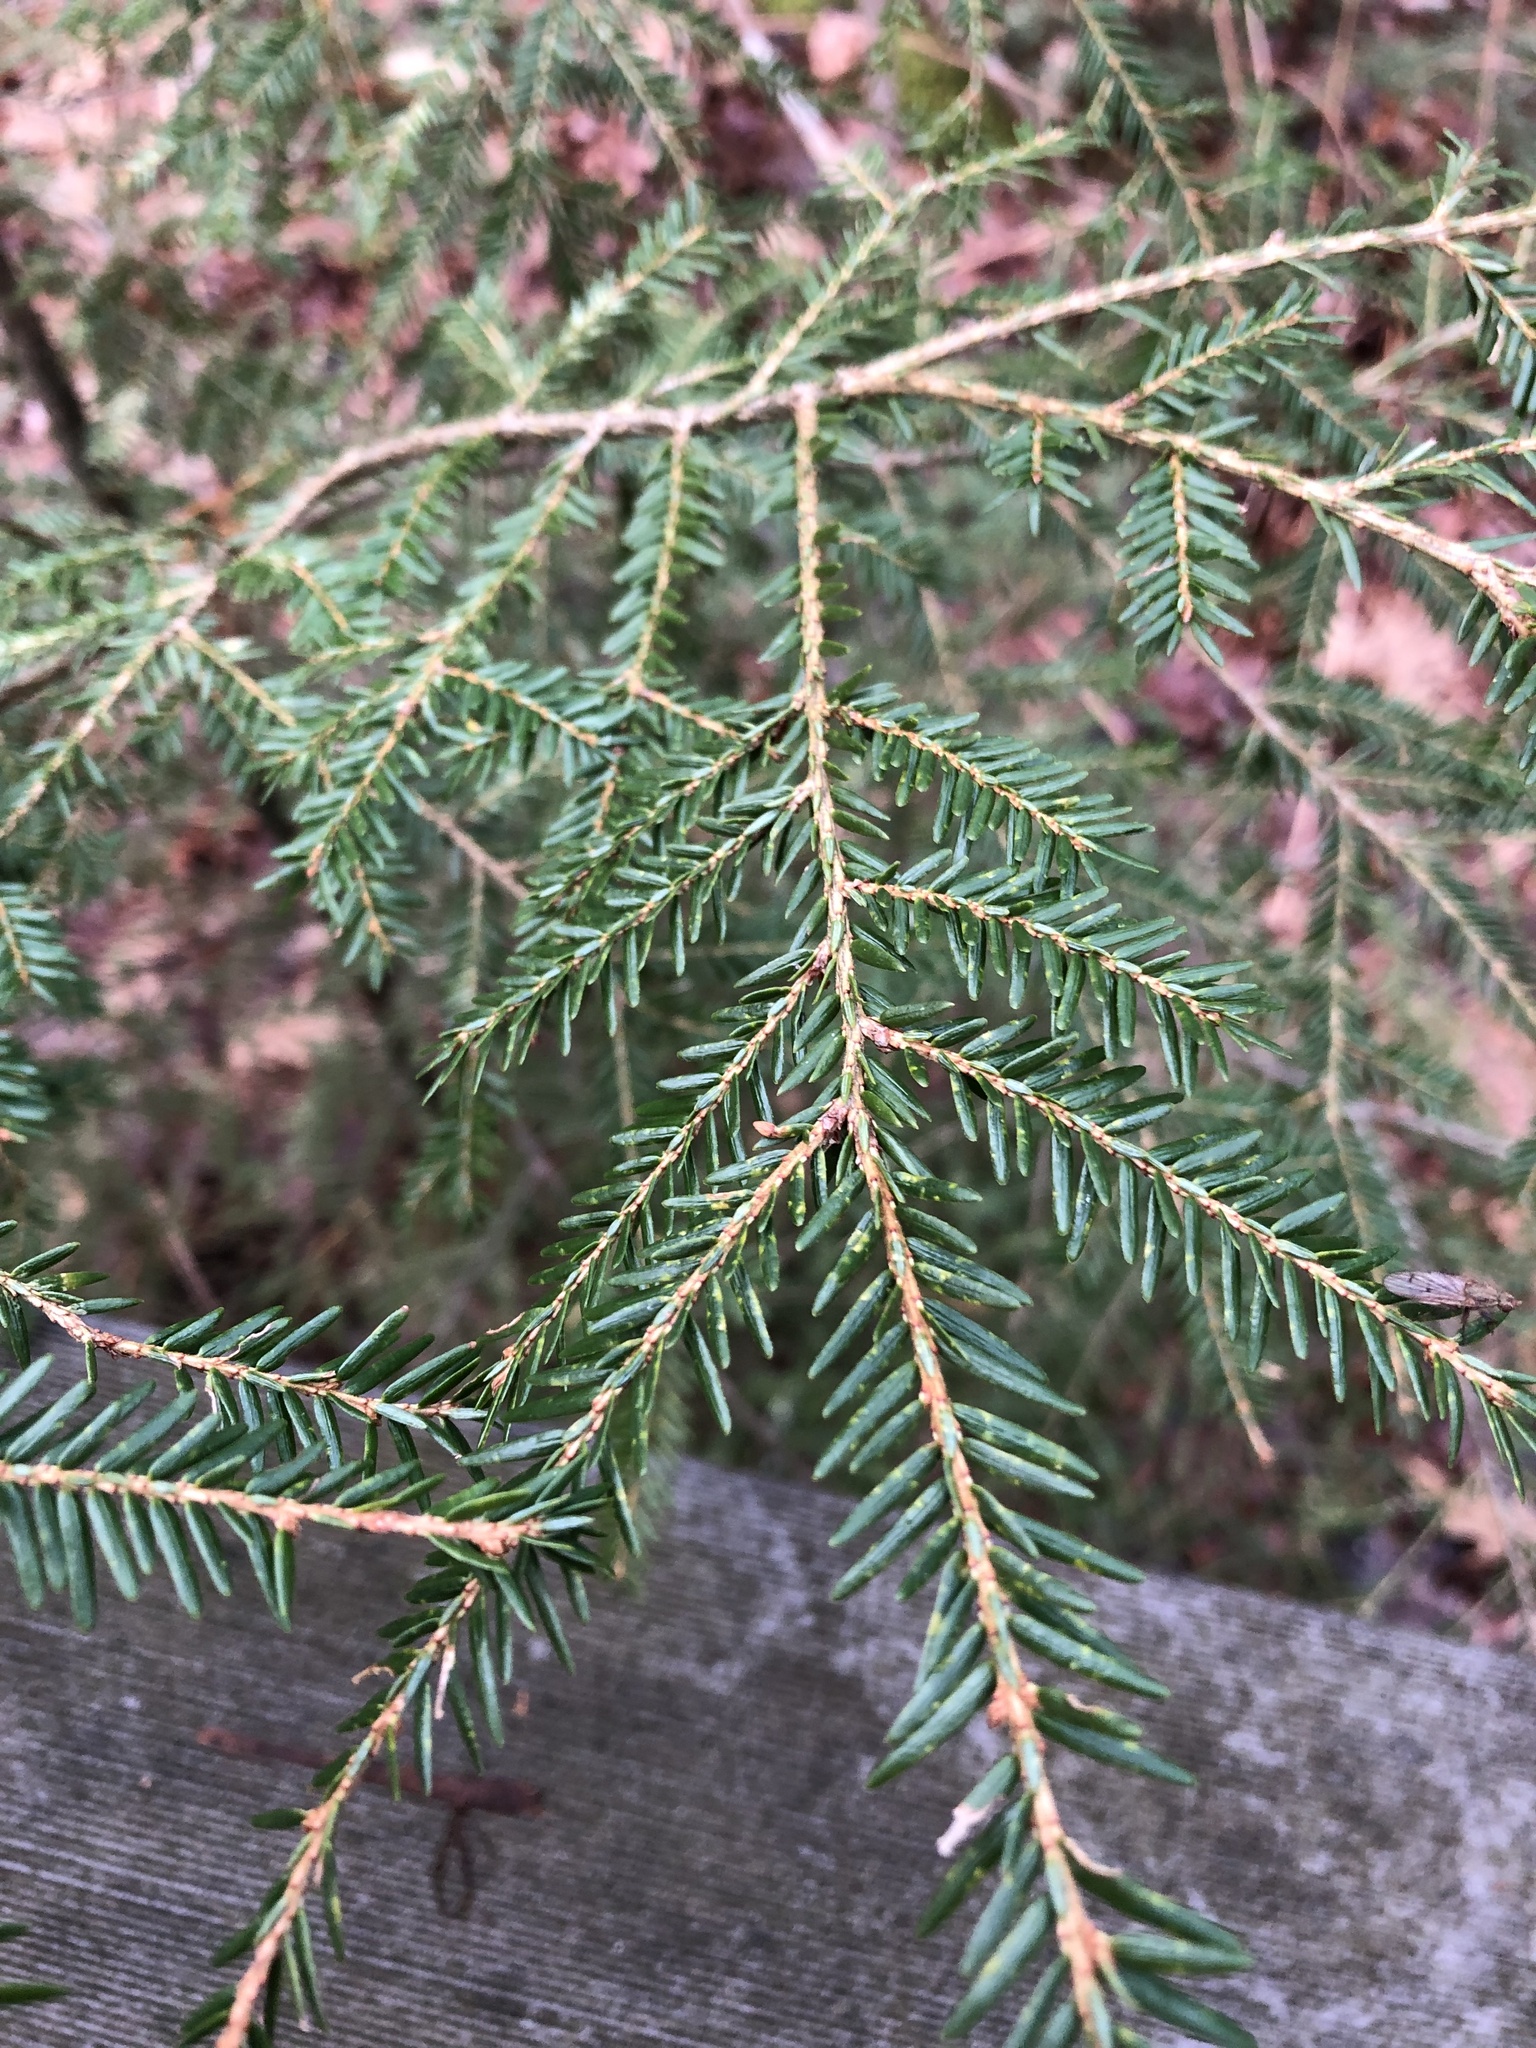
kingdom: Plantae
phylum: Tracheophyta
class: Pinopsida
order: Pinales
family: Pinaceae
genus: Tsuga
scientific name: Tsuga canadensis
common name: Eastern hemlock
